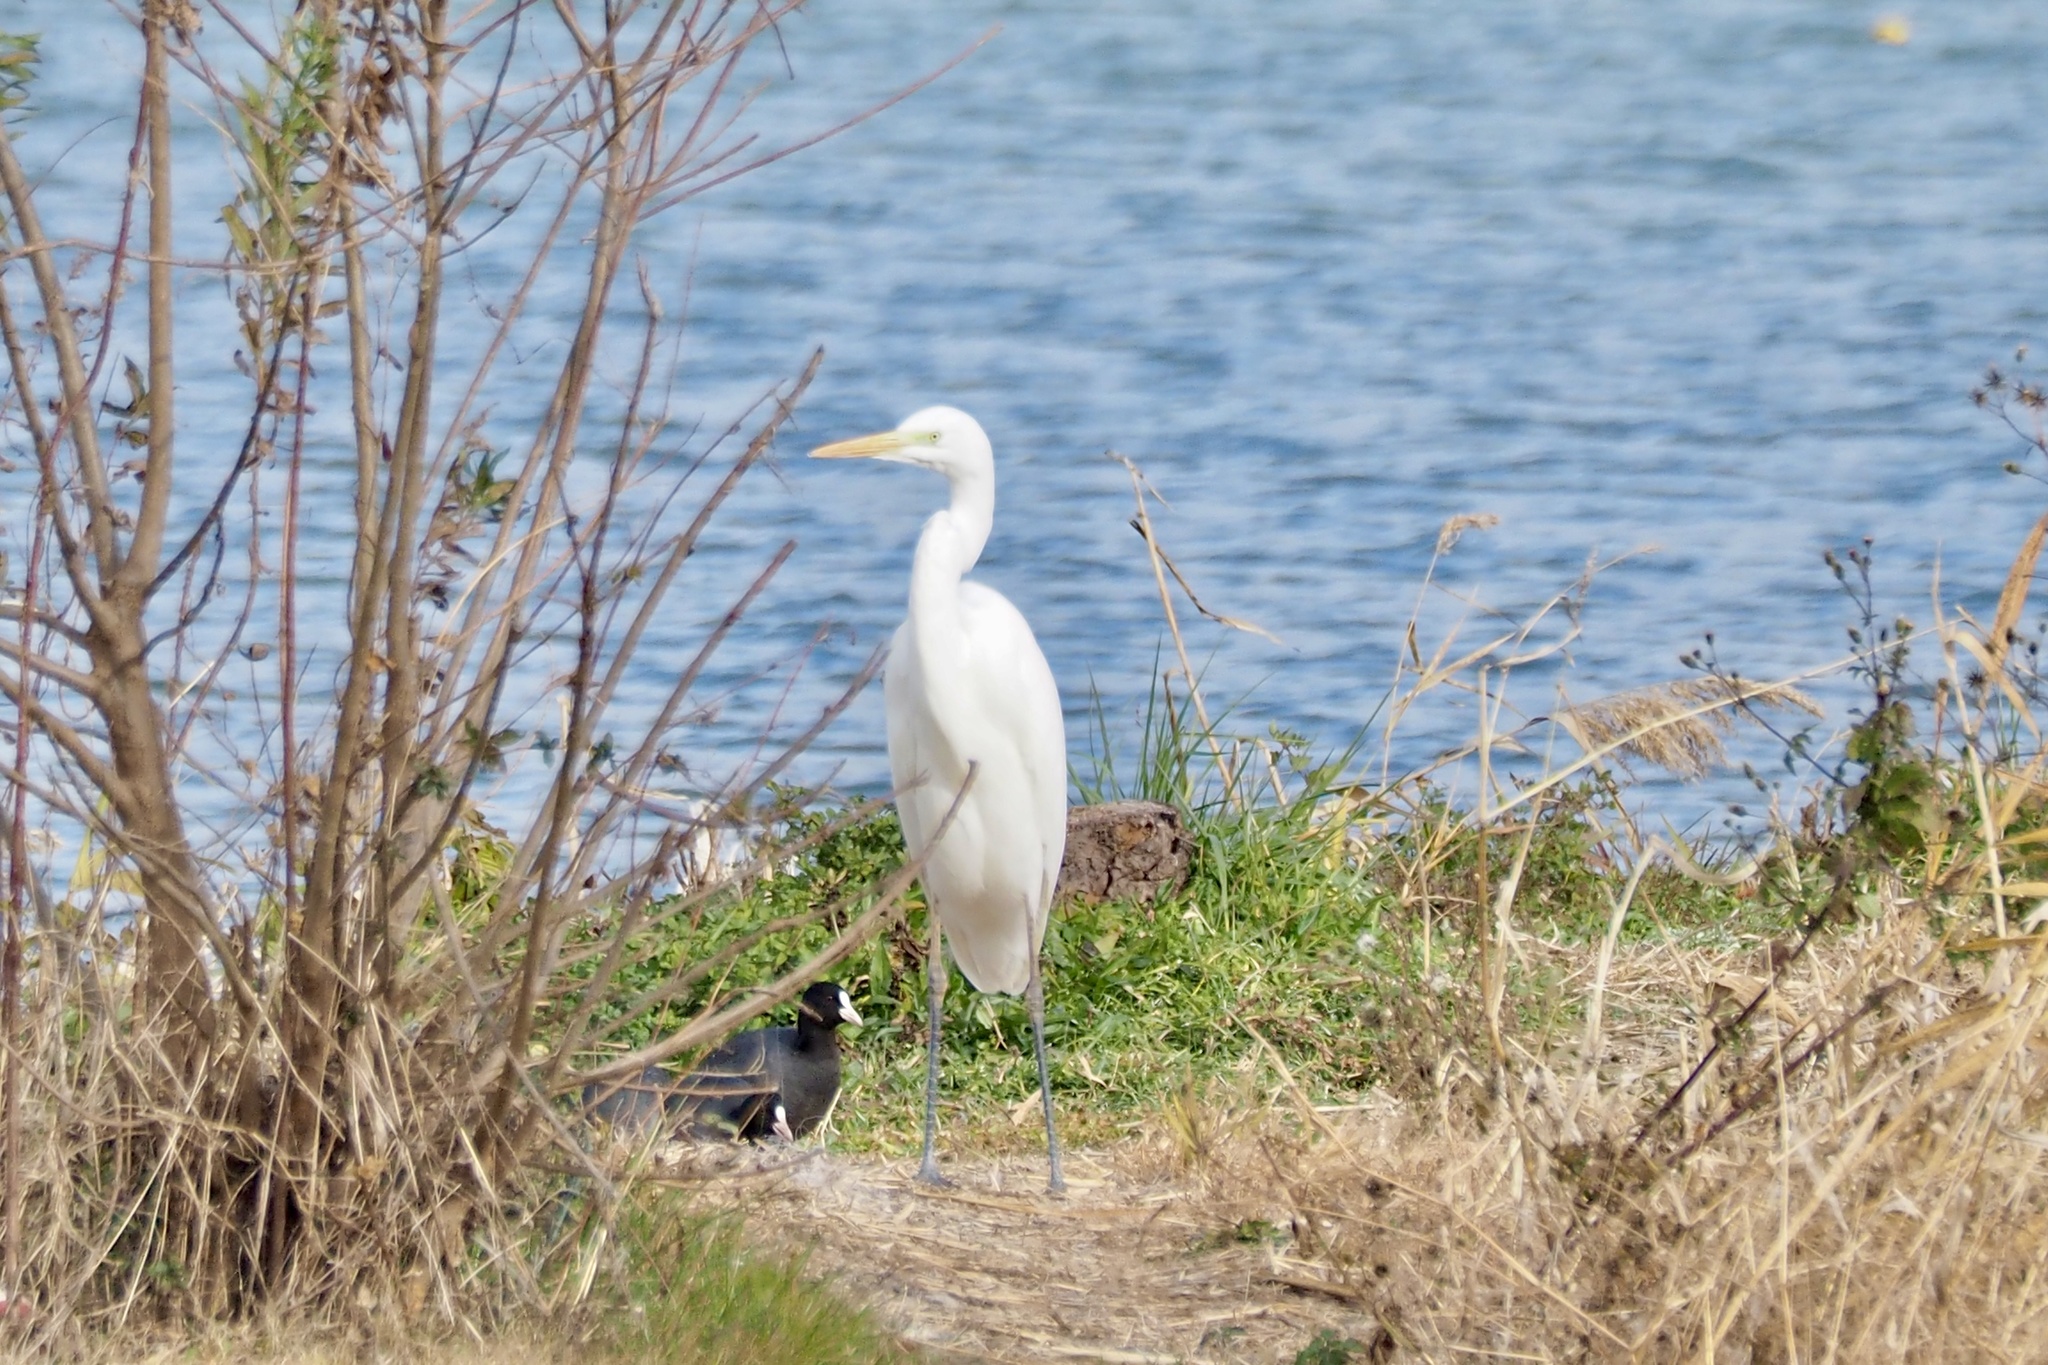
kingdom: Animalia
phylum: Chordata
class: Aves
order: Pelecaniformes
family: Ardeidae
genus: Ardea
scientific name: Ardea alba
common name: Great egret
